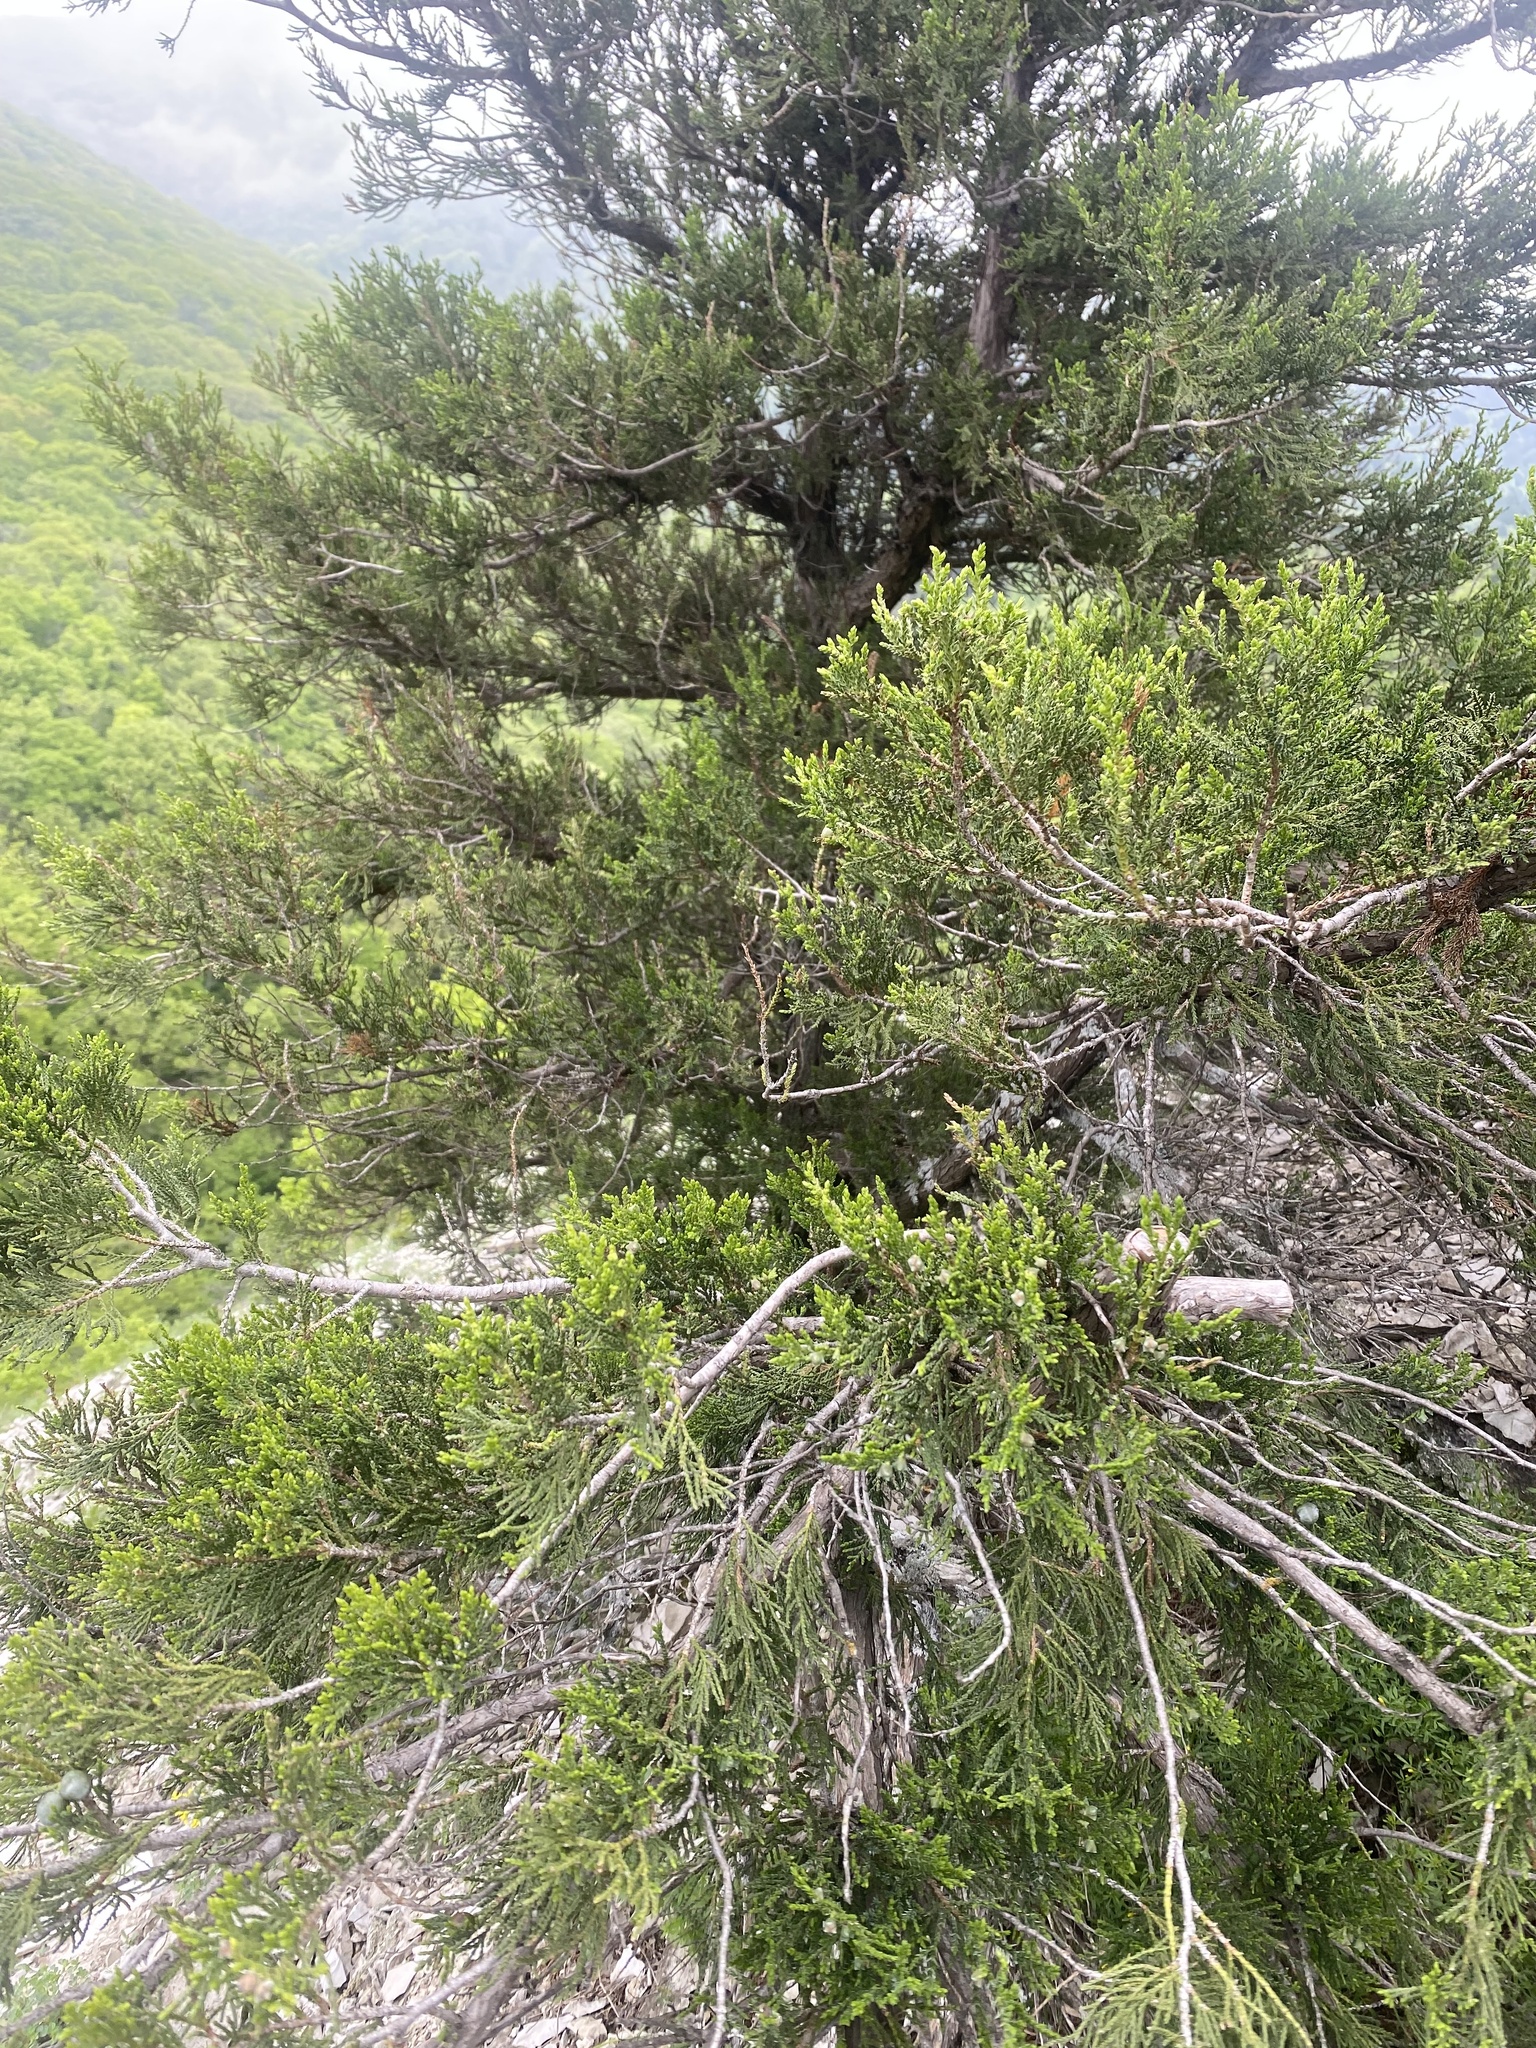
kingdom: Plantae
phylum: Tracheophyta
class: Pinopsida
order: Pinales
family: Cupressaceae
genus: Juniperus
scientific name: Juniperus excelsa
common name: Crimean juniper
